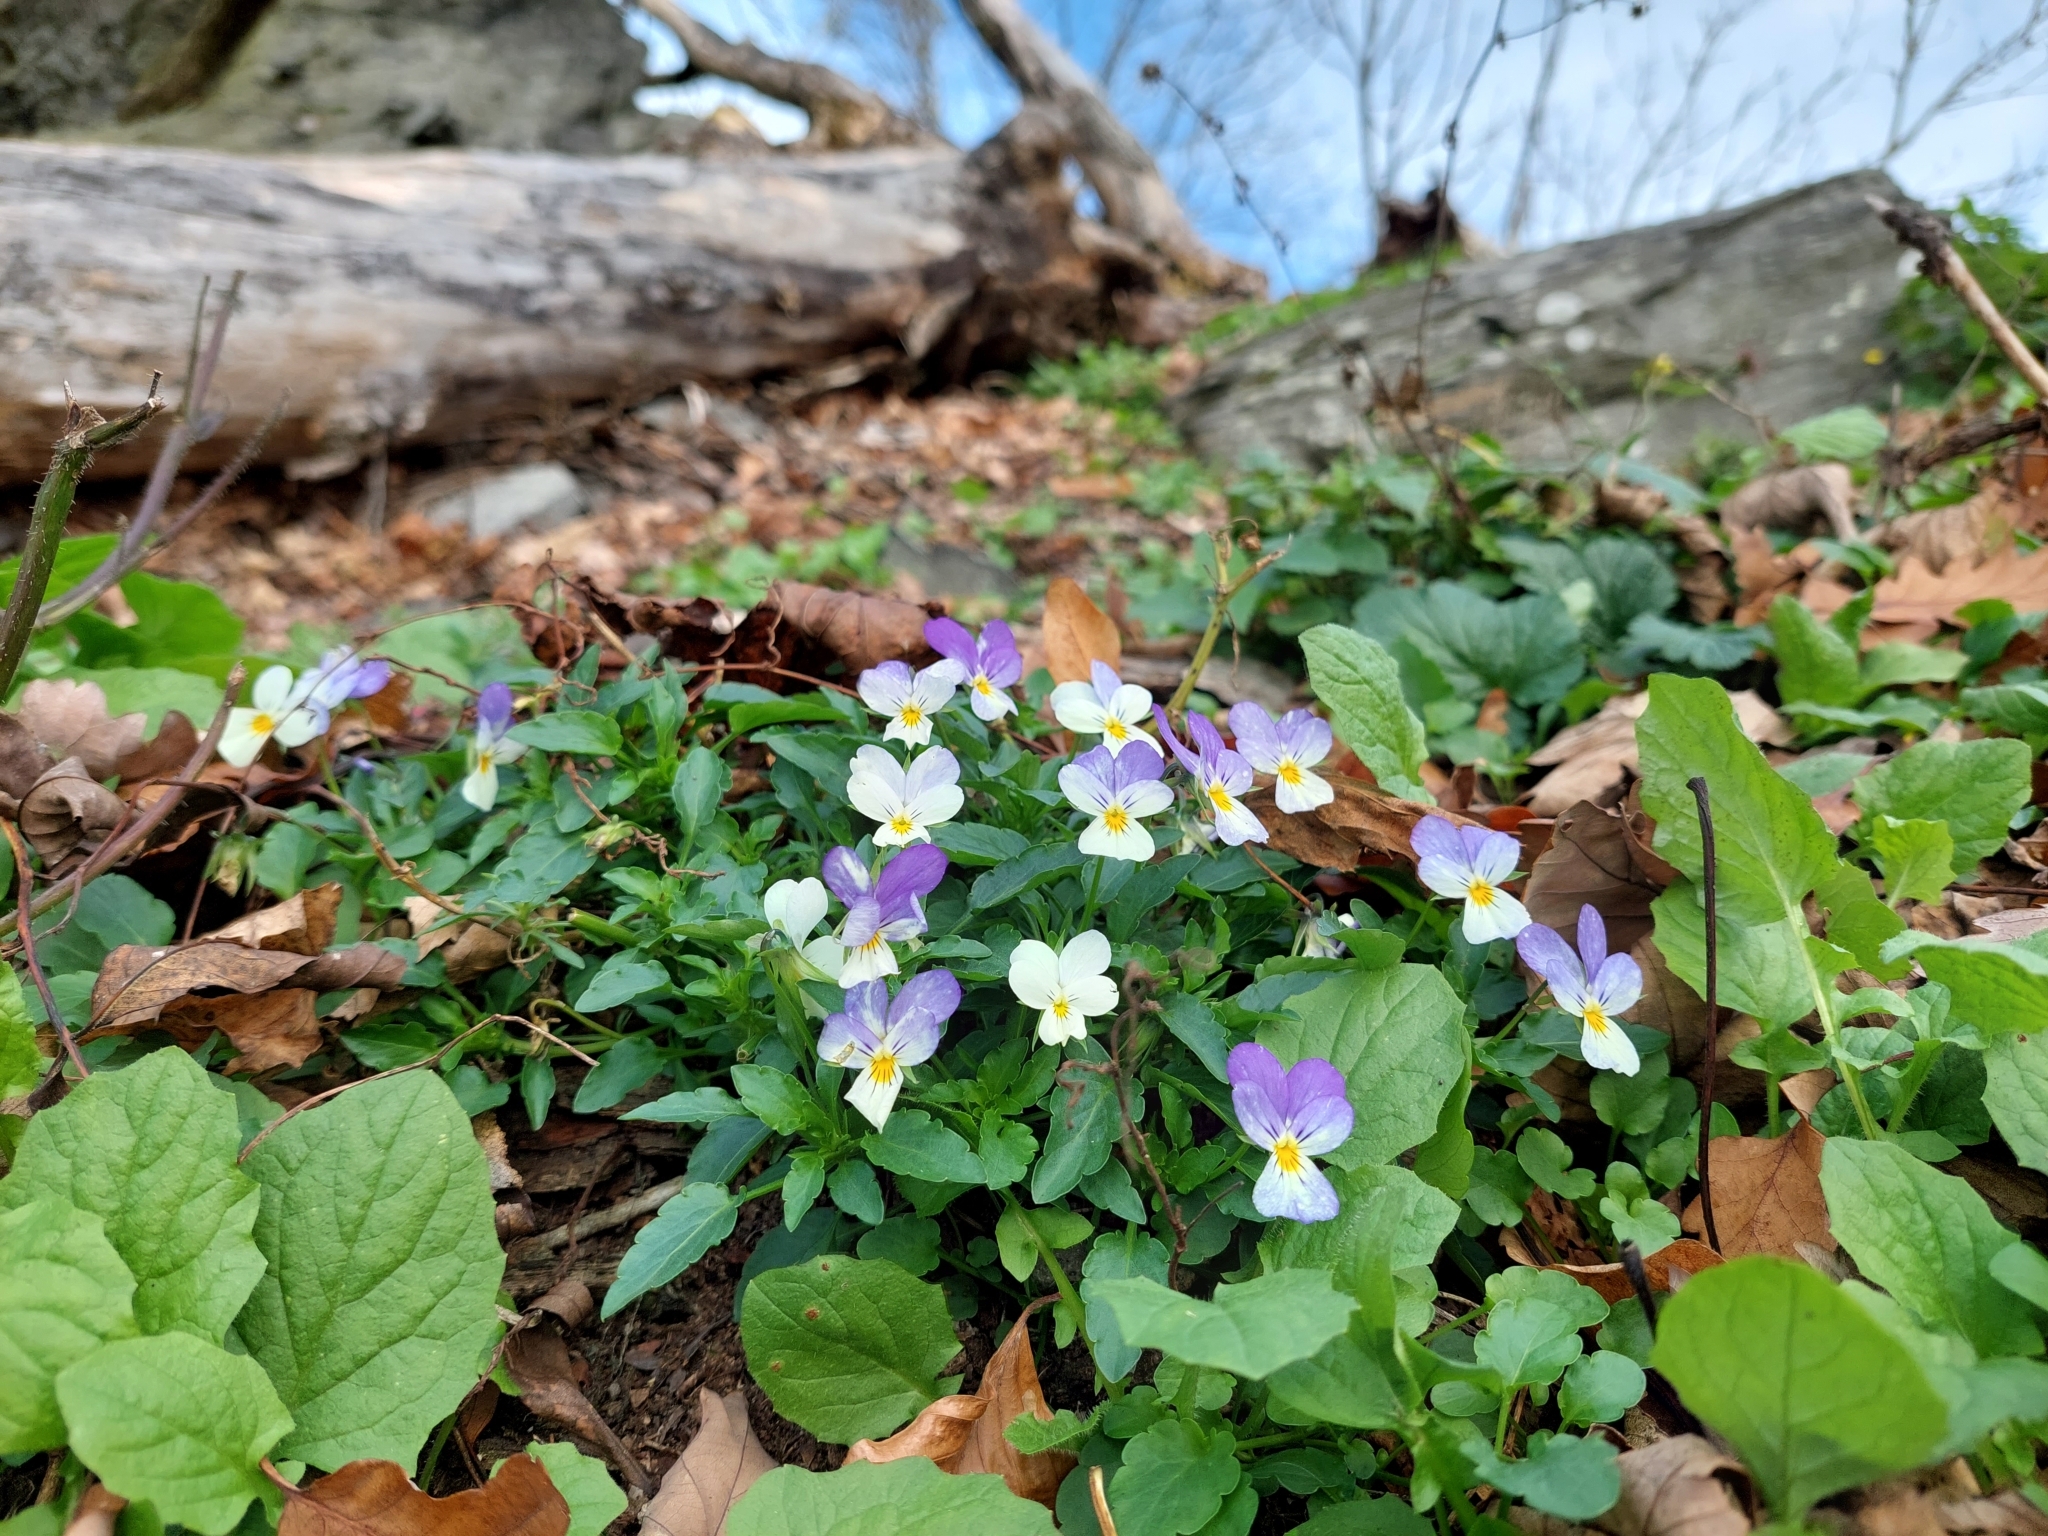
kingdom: Plantae
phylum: Tracheophyta
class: Magnoliopsida
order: Malpighiales
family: Violaceae
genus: Viola
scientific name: Viola tricolor
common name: Pansy
